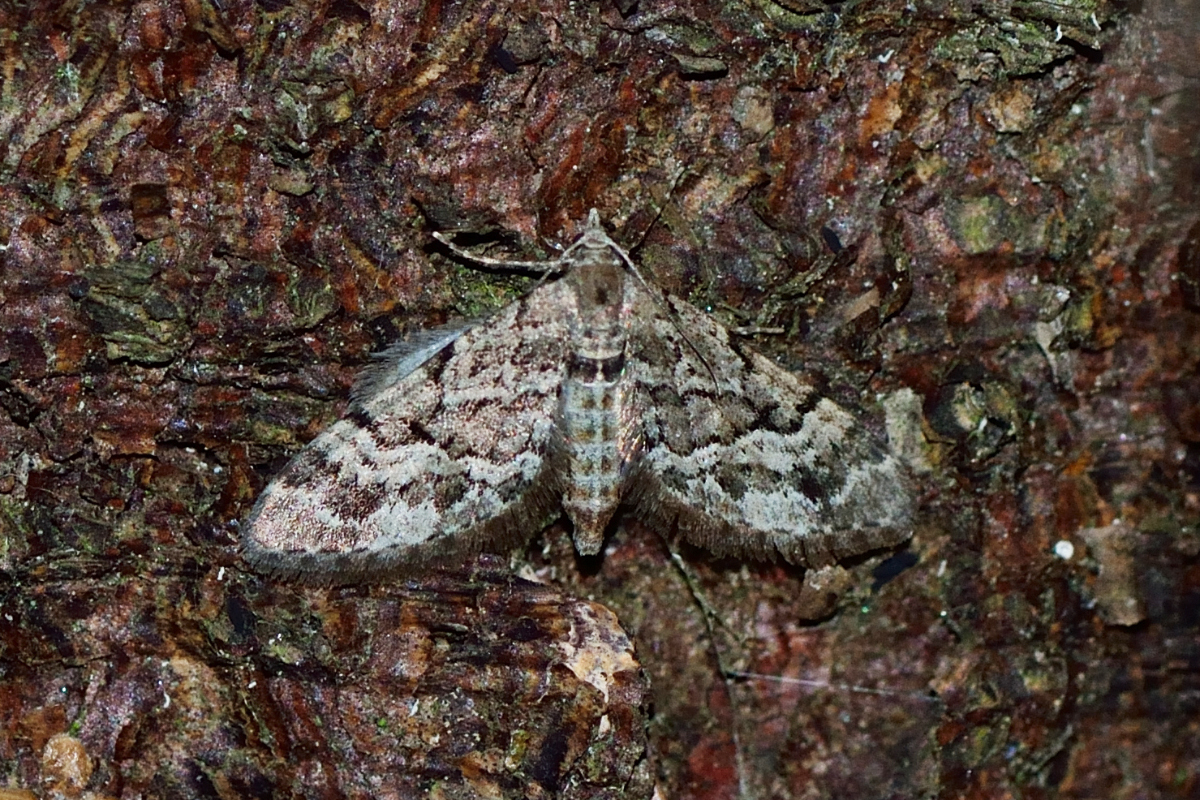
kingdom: Animalia
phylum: Arthropoda
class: Insecta
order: Lepidoptera
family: Geometridae
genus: Eupithecia
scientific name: Eupithecia lanceata
